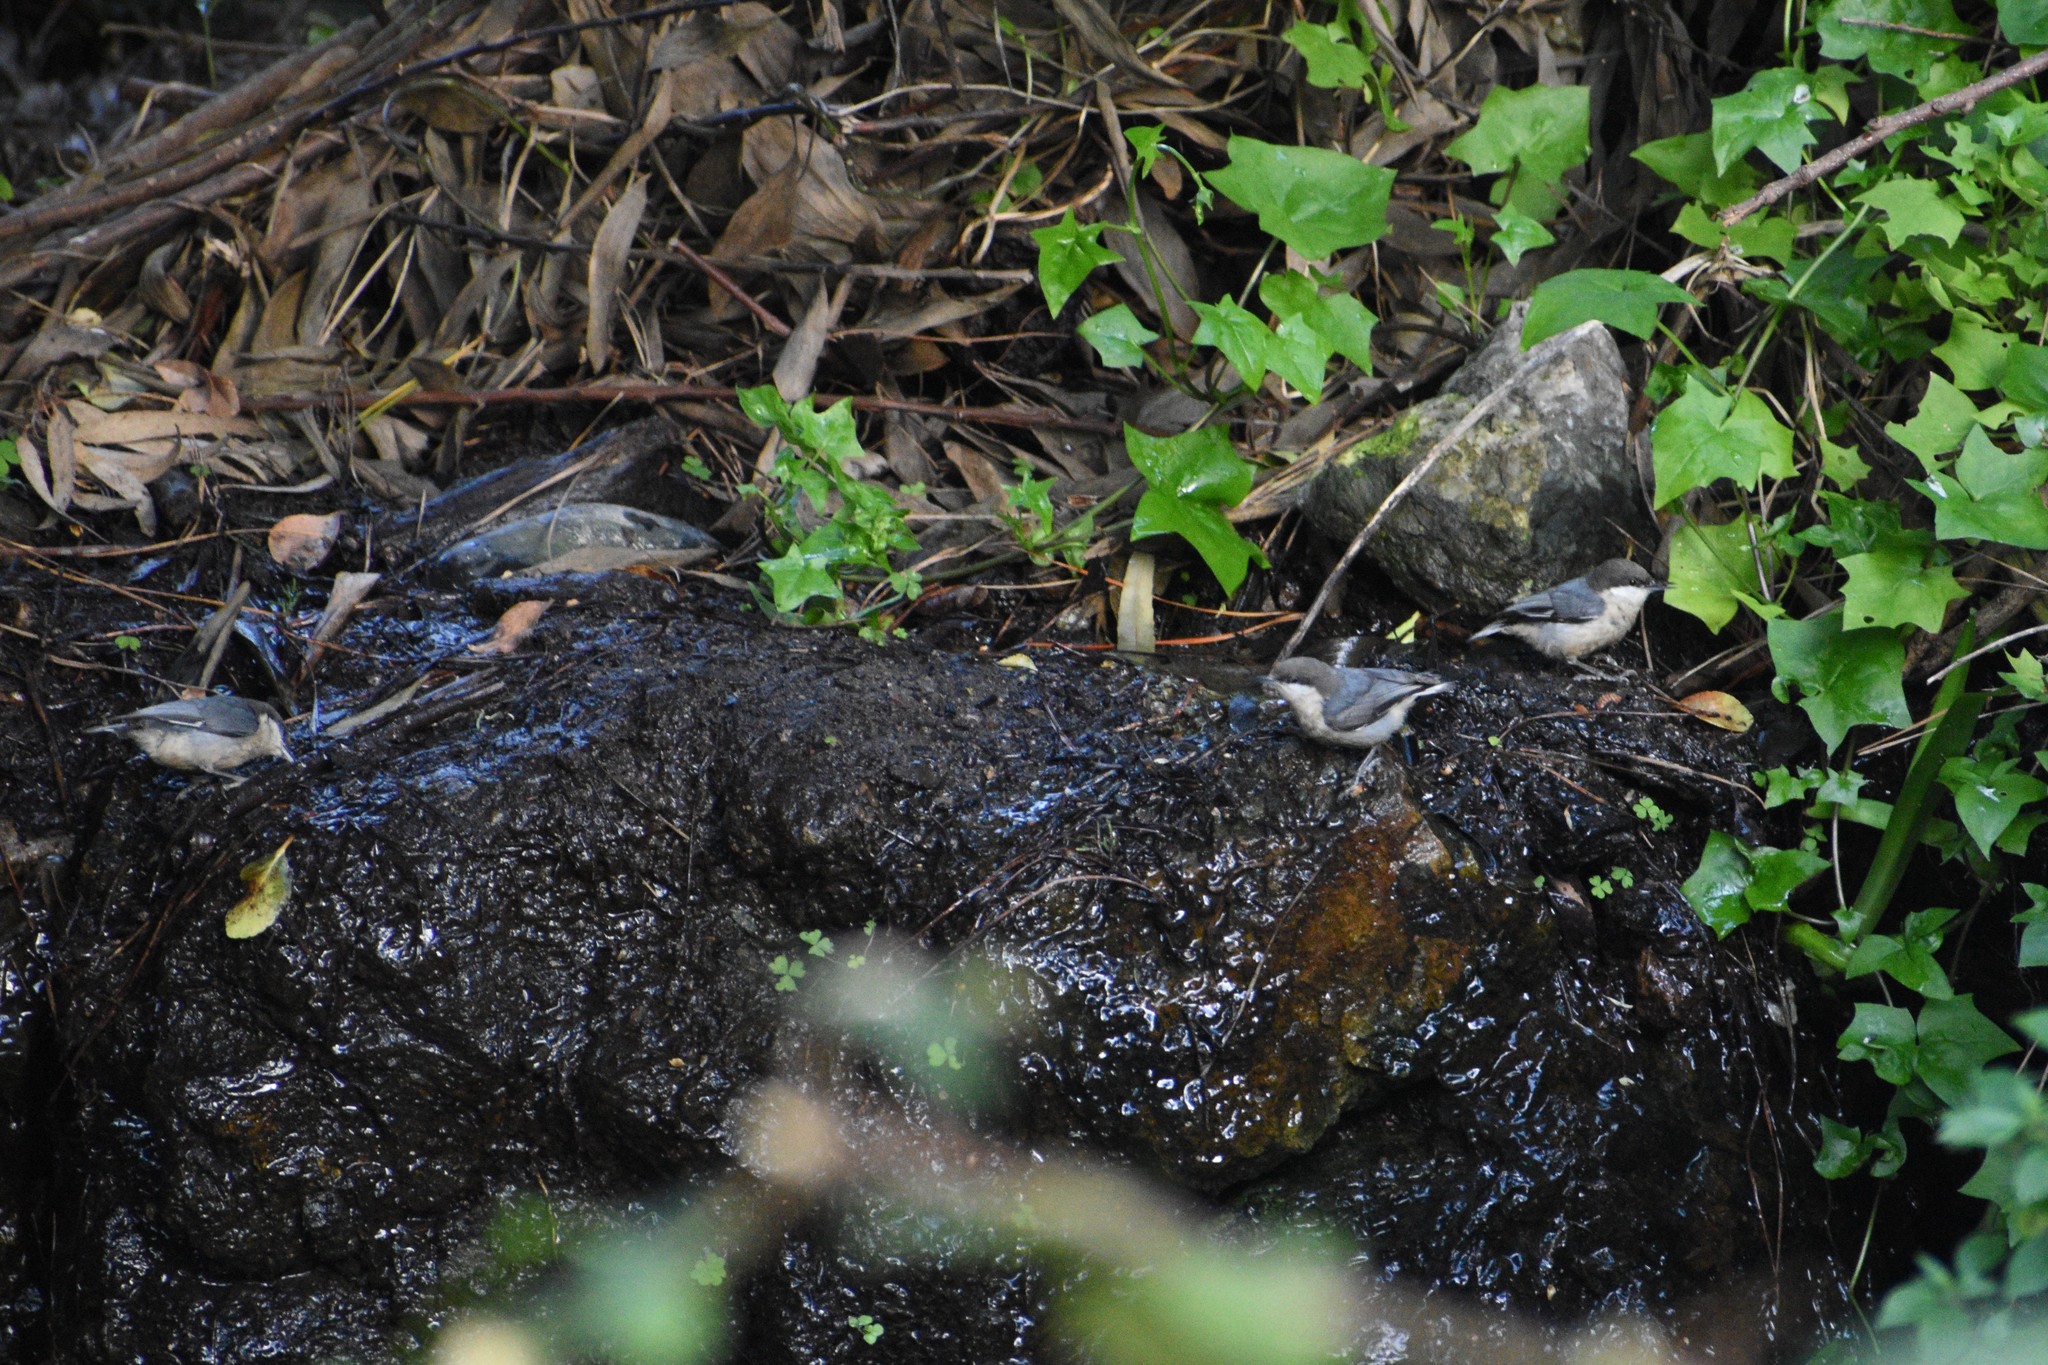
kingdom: Animalia
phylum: Chordata
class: Aves
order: Passeriformes
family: Sittidae
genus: Sitta
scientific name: Sitta pygmaea
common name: Pygmy nuthatch
